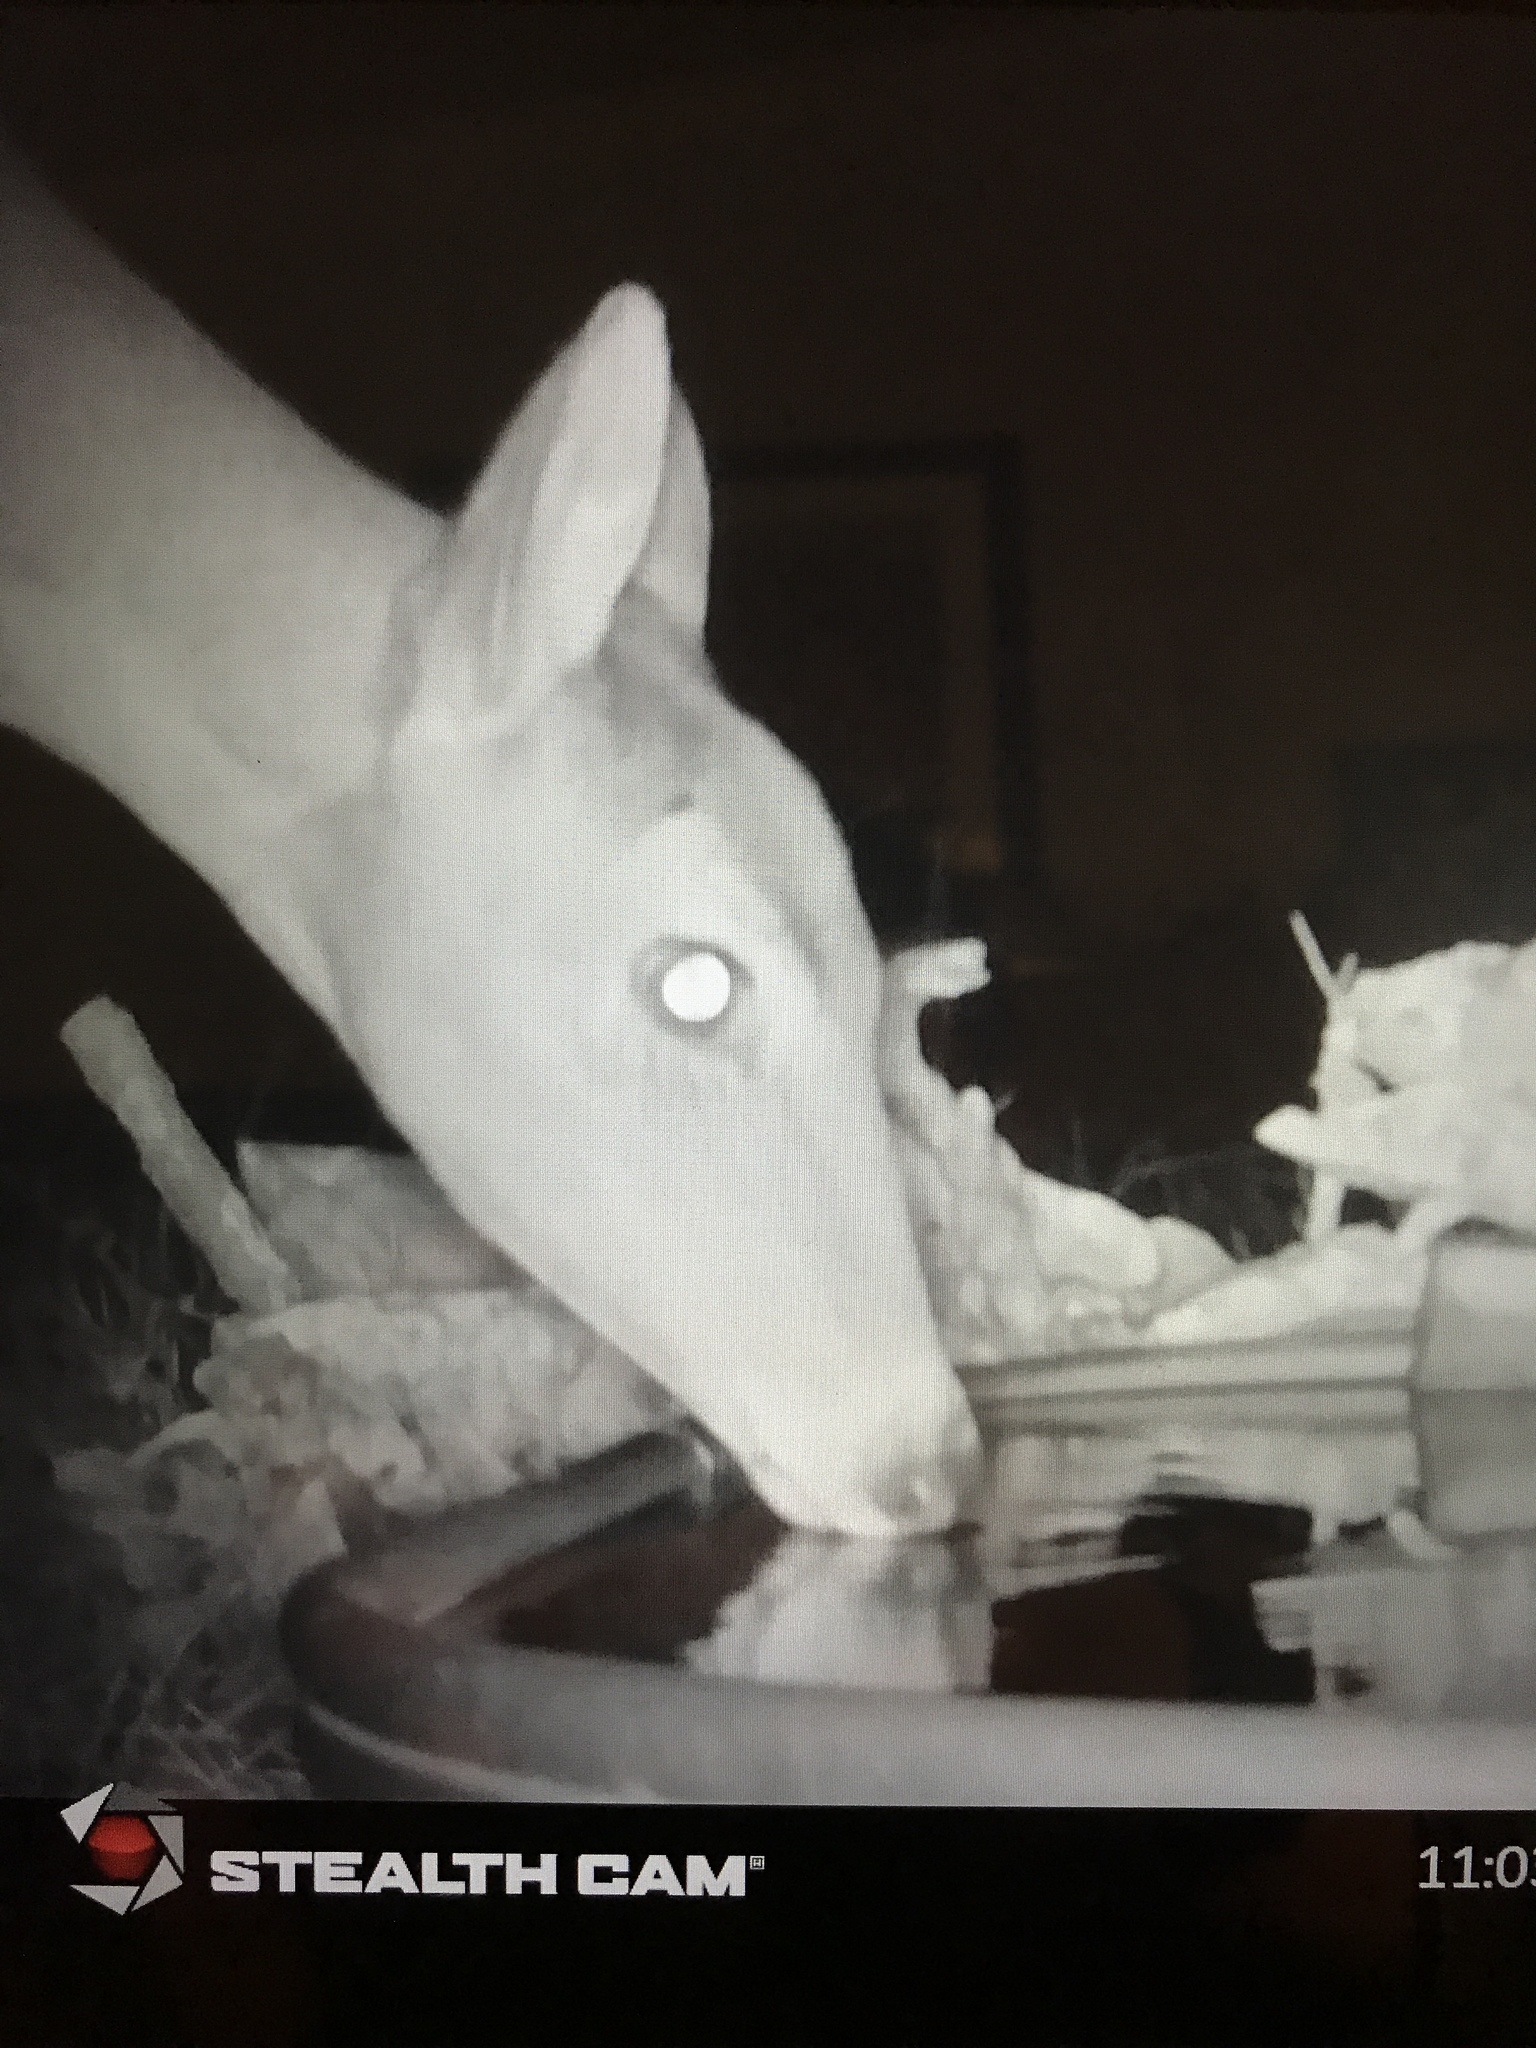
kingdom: Animalia
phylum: Chordata
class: Mammalia
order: Artiodactyla
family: Cervidae
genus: Odocoileus
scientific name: Odocoileus virginianus
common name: White-tailed deer
